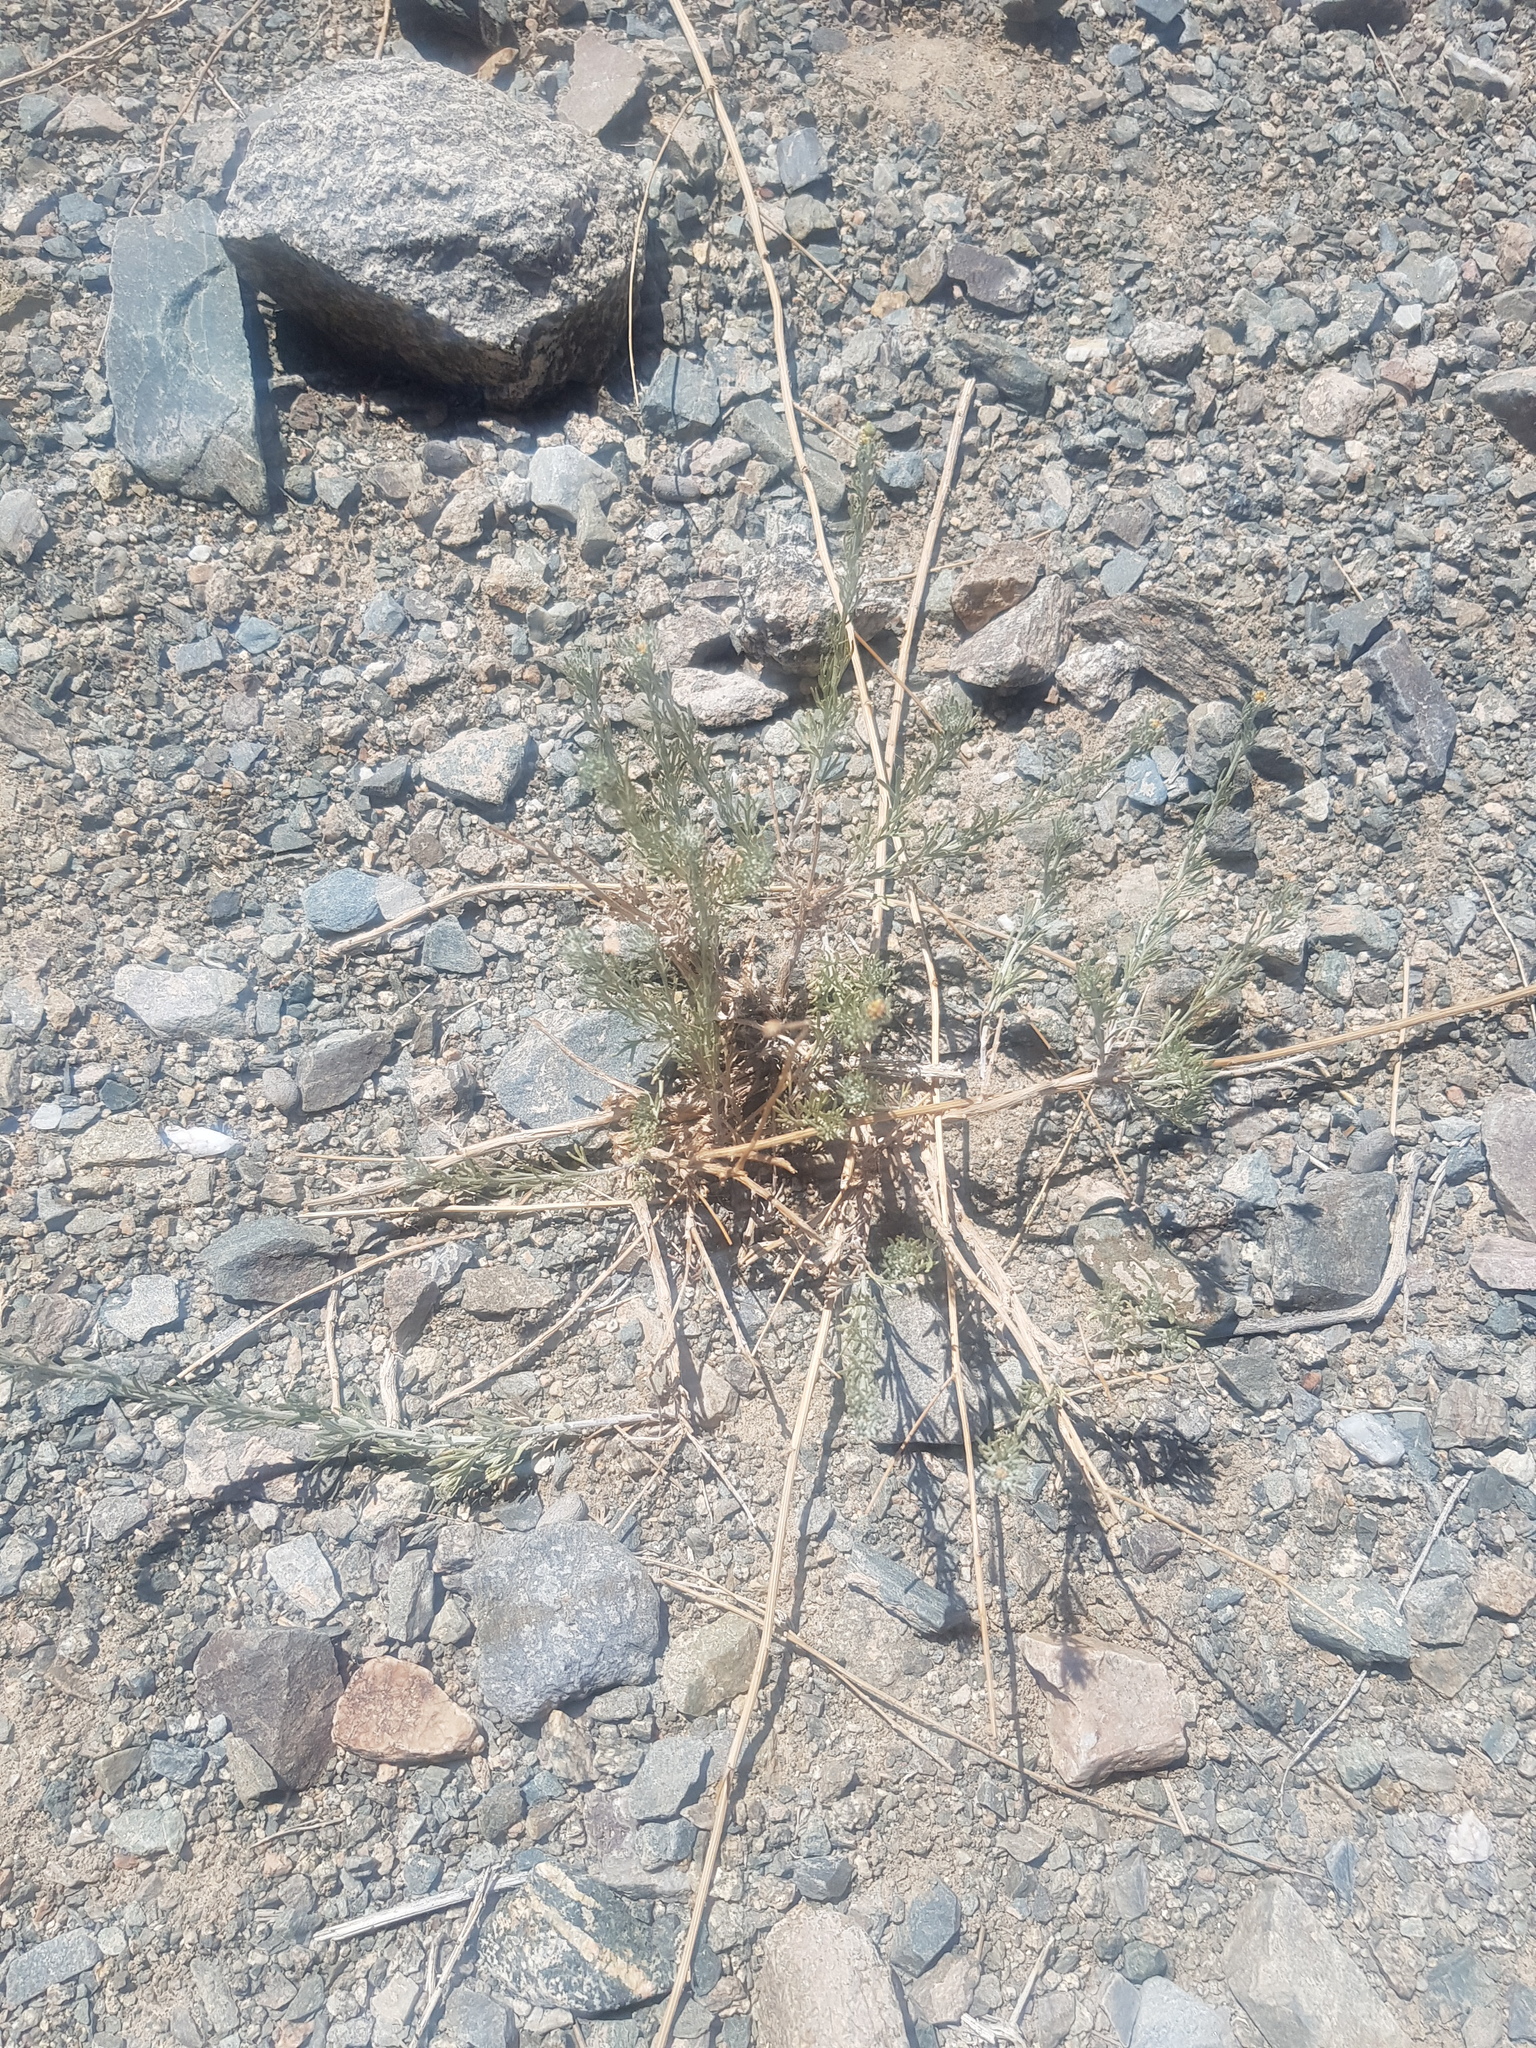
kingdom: Plantae
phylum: Tracheophyta
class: Magnoliopsida
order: Asterales
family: Asteraceae
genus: Ajania
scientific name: Ajania fruticulosa
